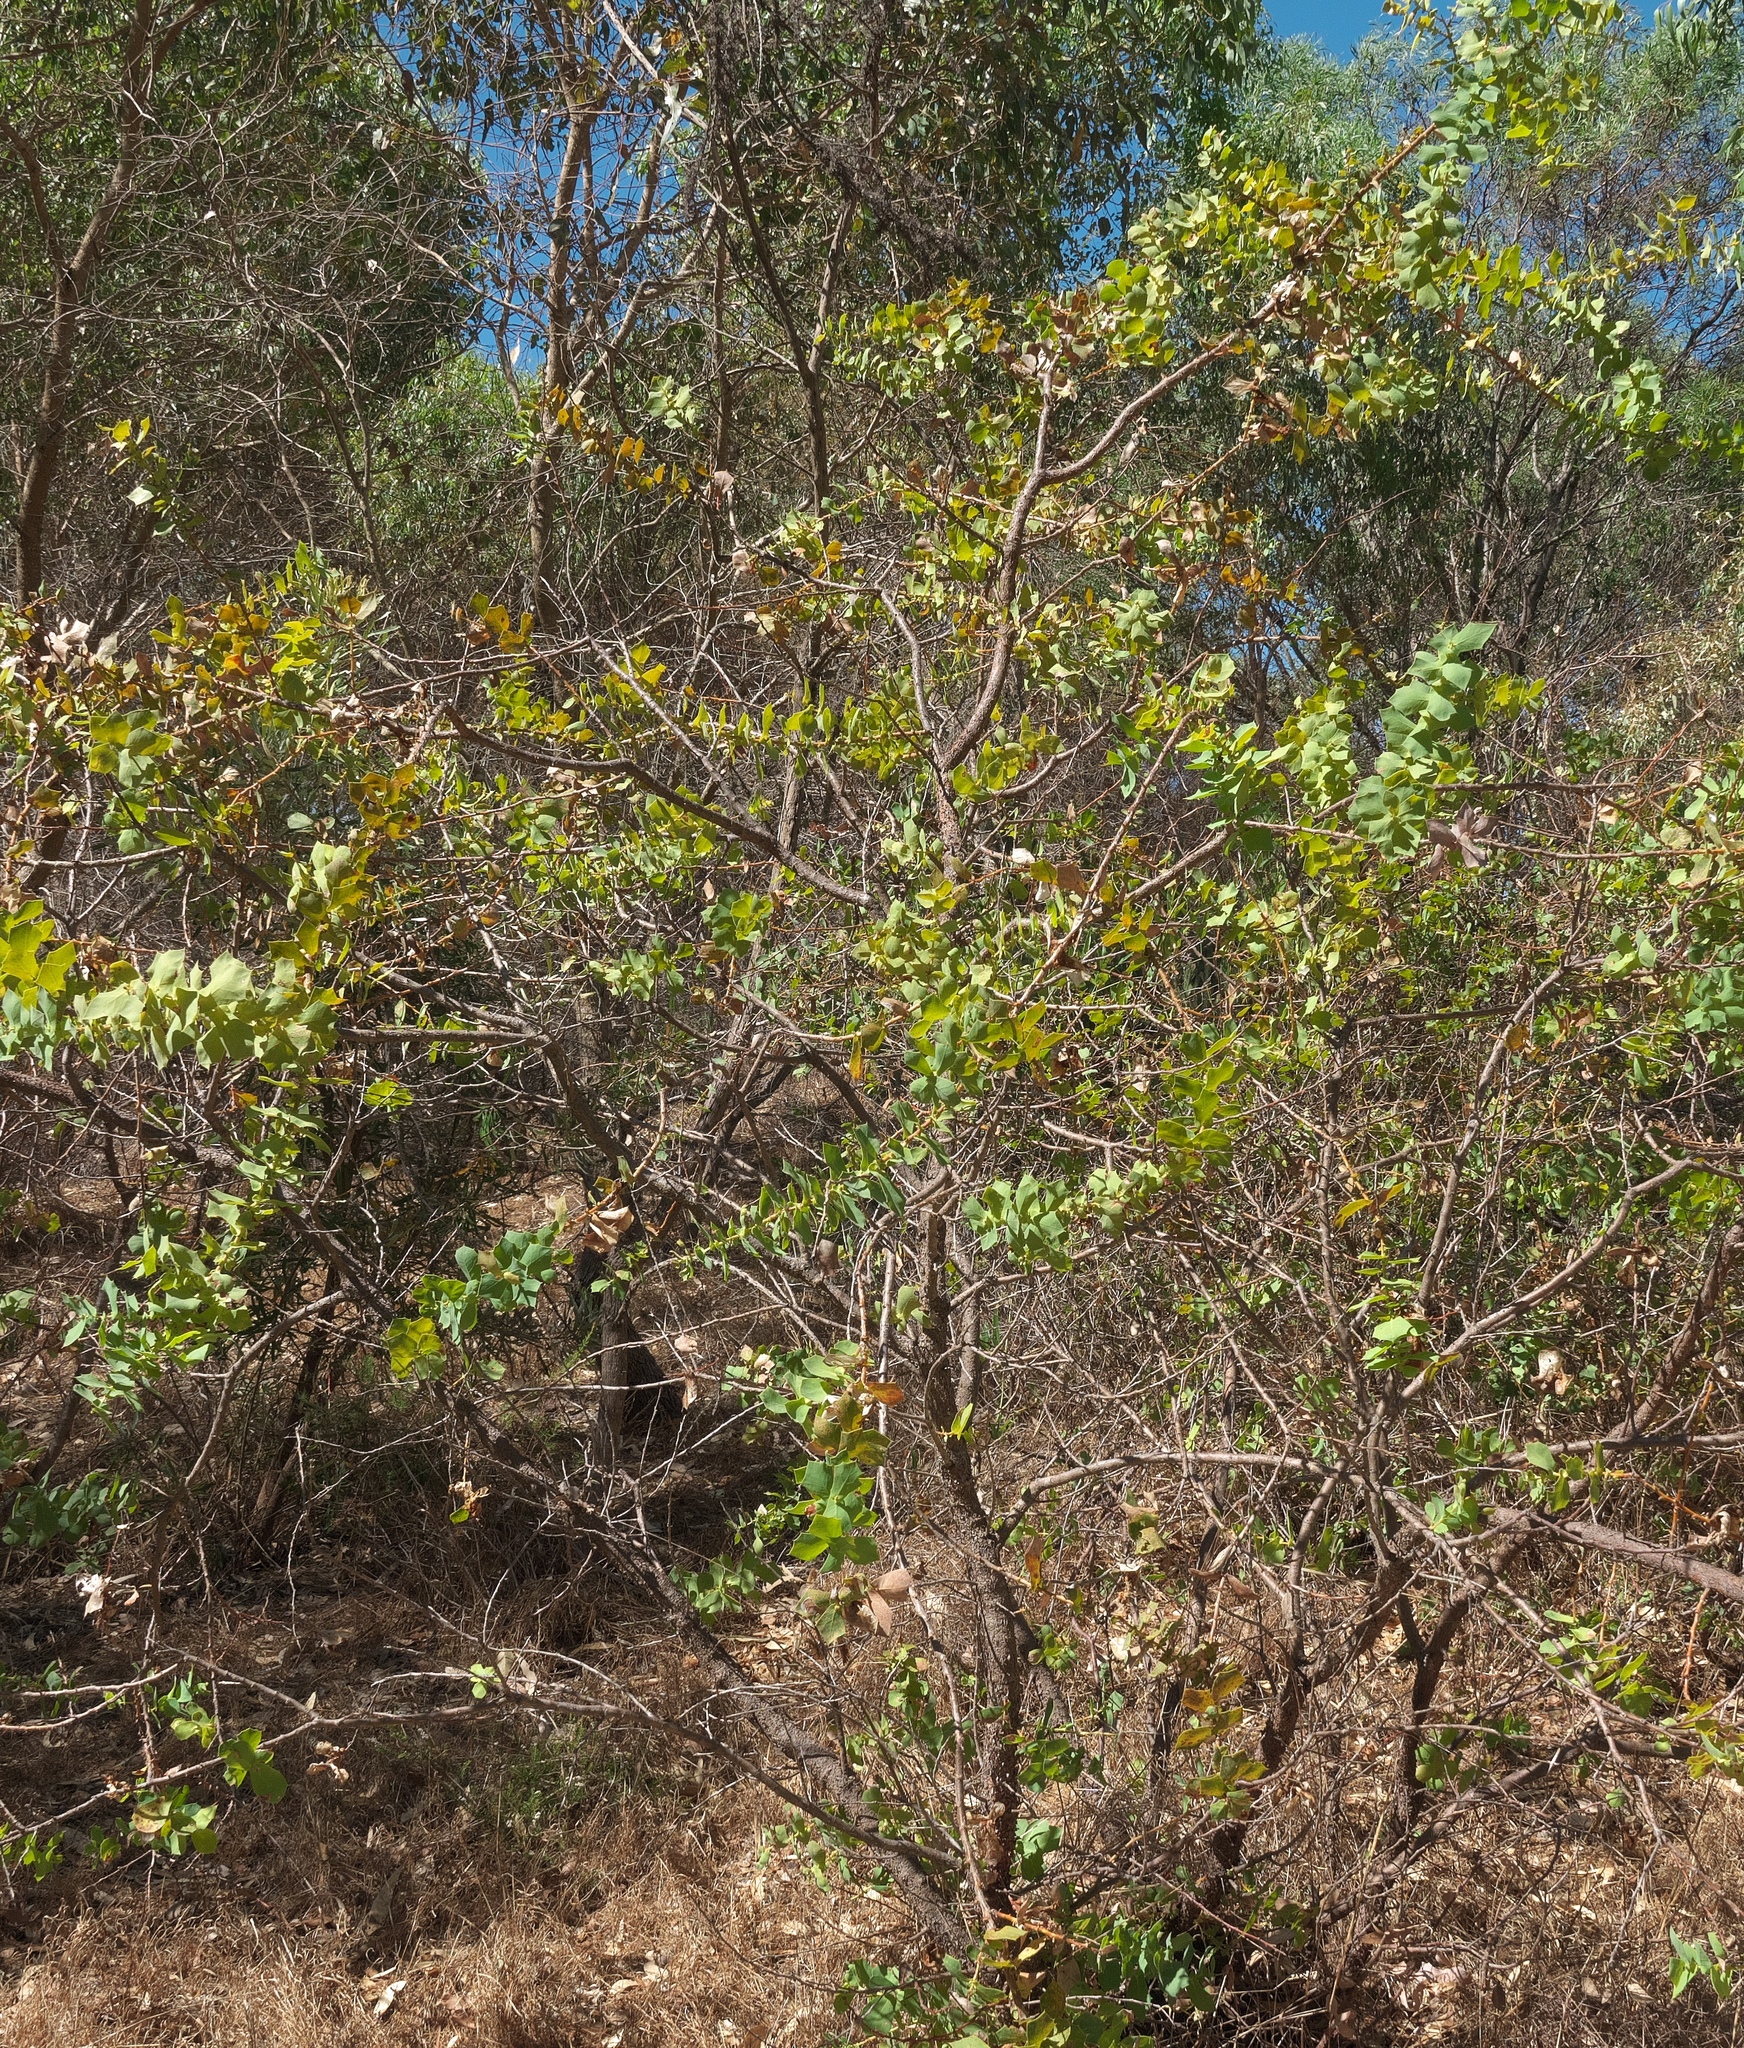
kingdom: Plantae
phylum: Tracheophyta
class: Magnoliopsida
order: Proteales
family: Proteaceae
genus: Hakea
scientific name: Hakea prostrata
